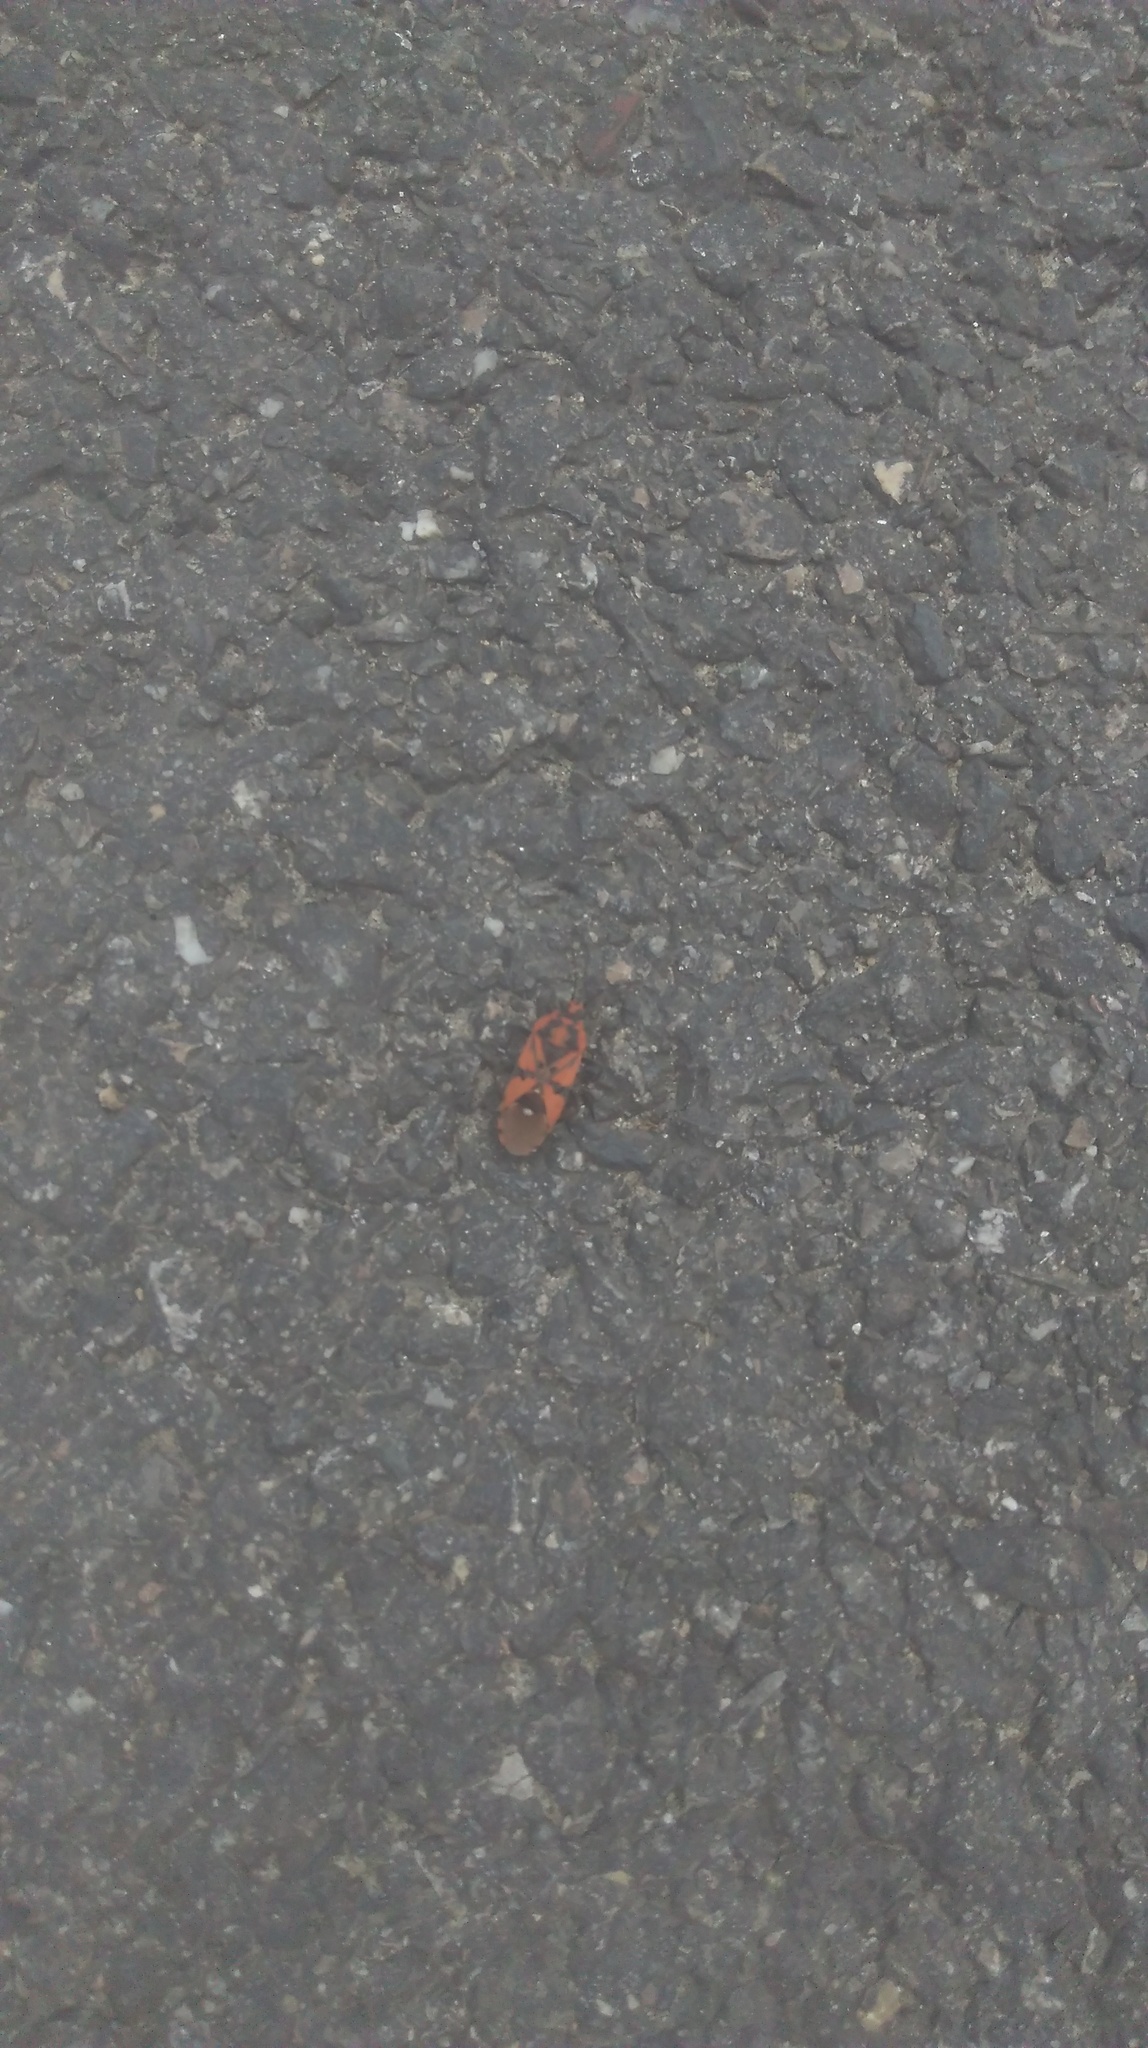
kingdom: Animalia
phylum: Arthropoda
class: Insecta
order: Hemiptera
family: Lygaeidae
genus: Spilostethus
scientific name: Spilostethus pandurus
